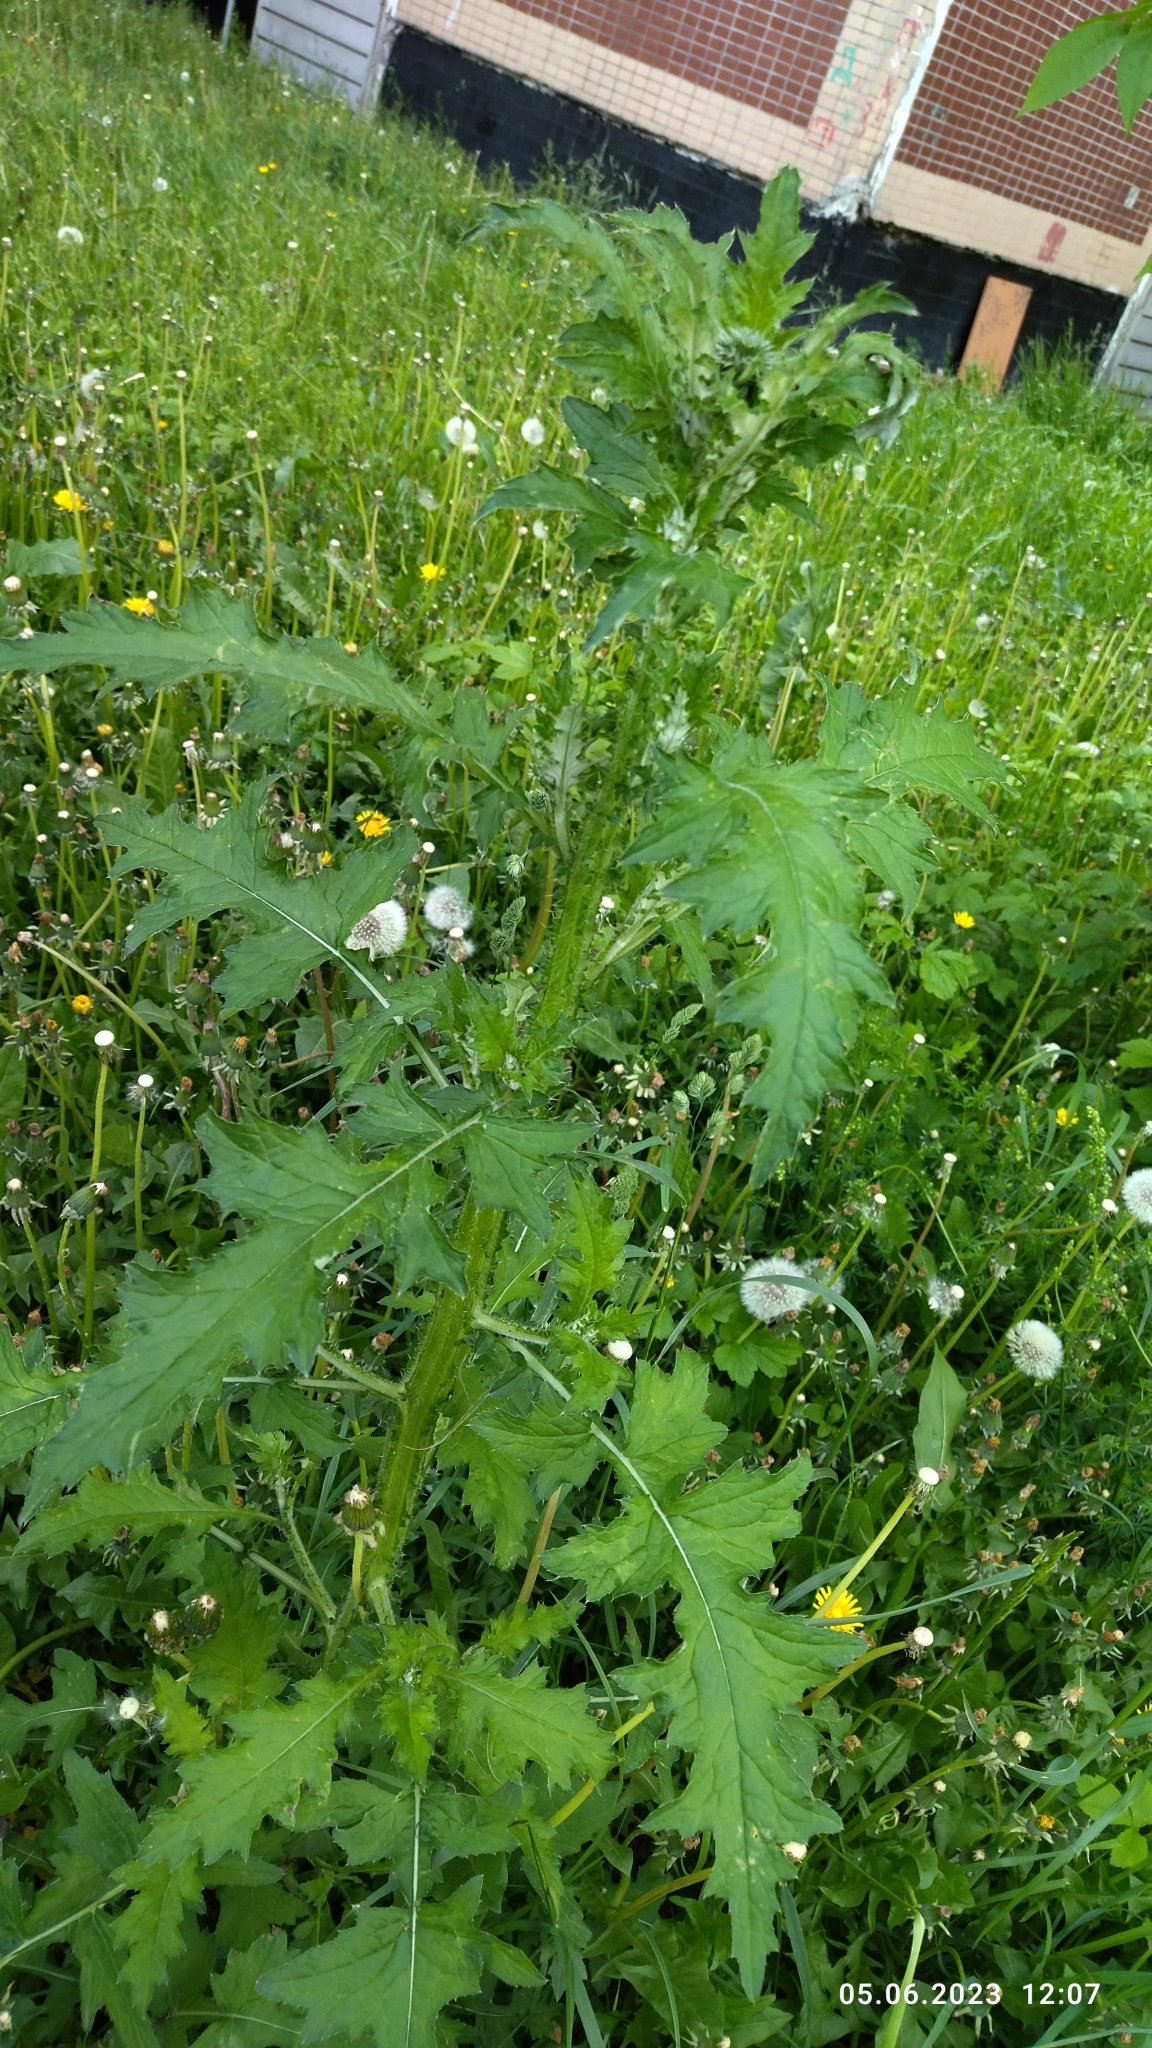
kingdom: Plantae
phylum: Tracheophyta
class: Magnoliopsida
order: Asterales
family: Asteraceae
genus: Carduus
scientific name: Carduus crispus
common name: Welted thistle
